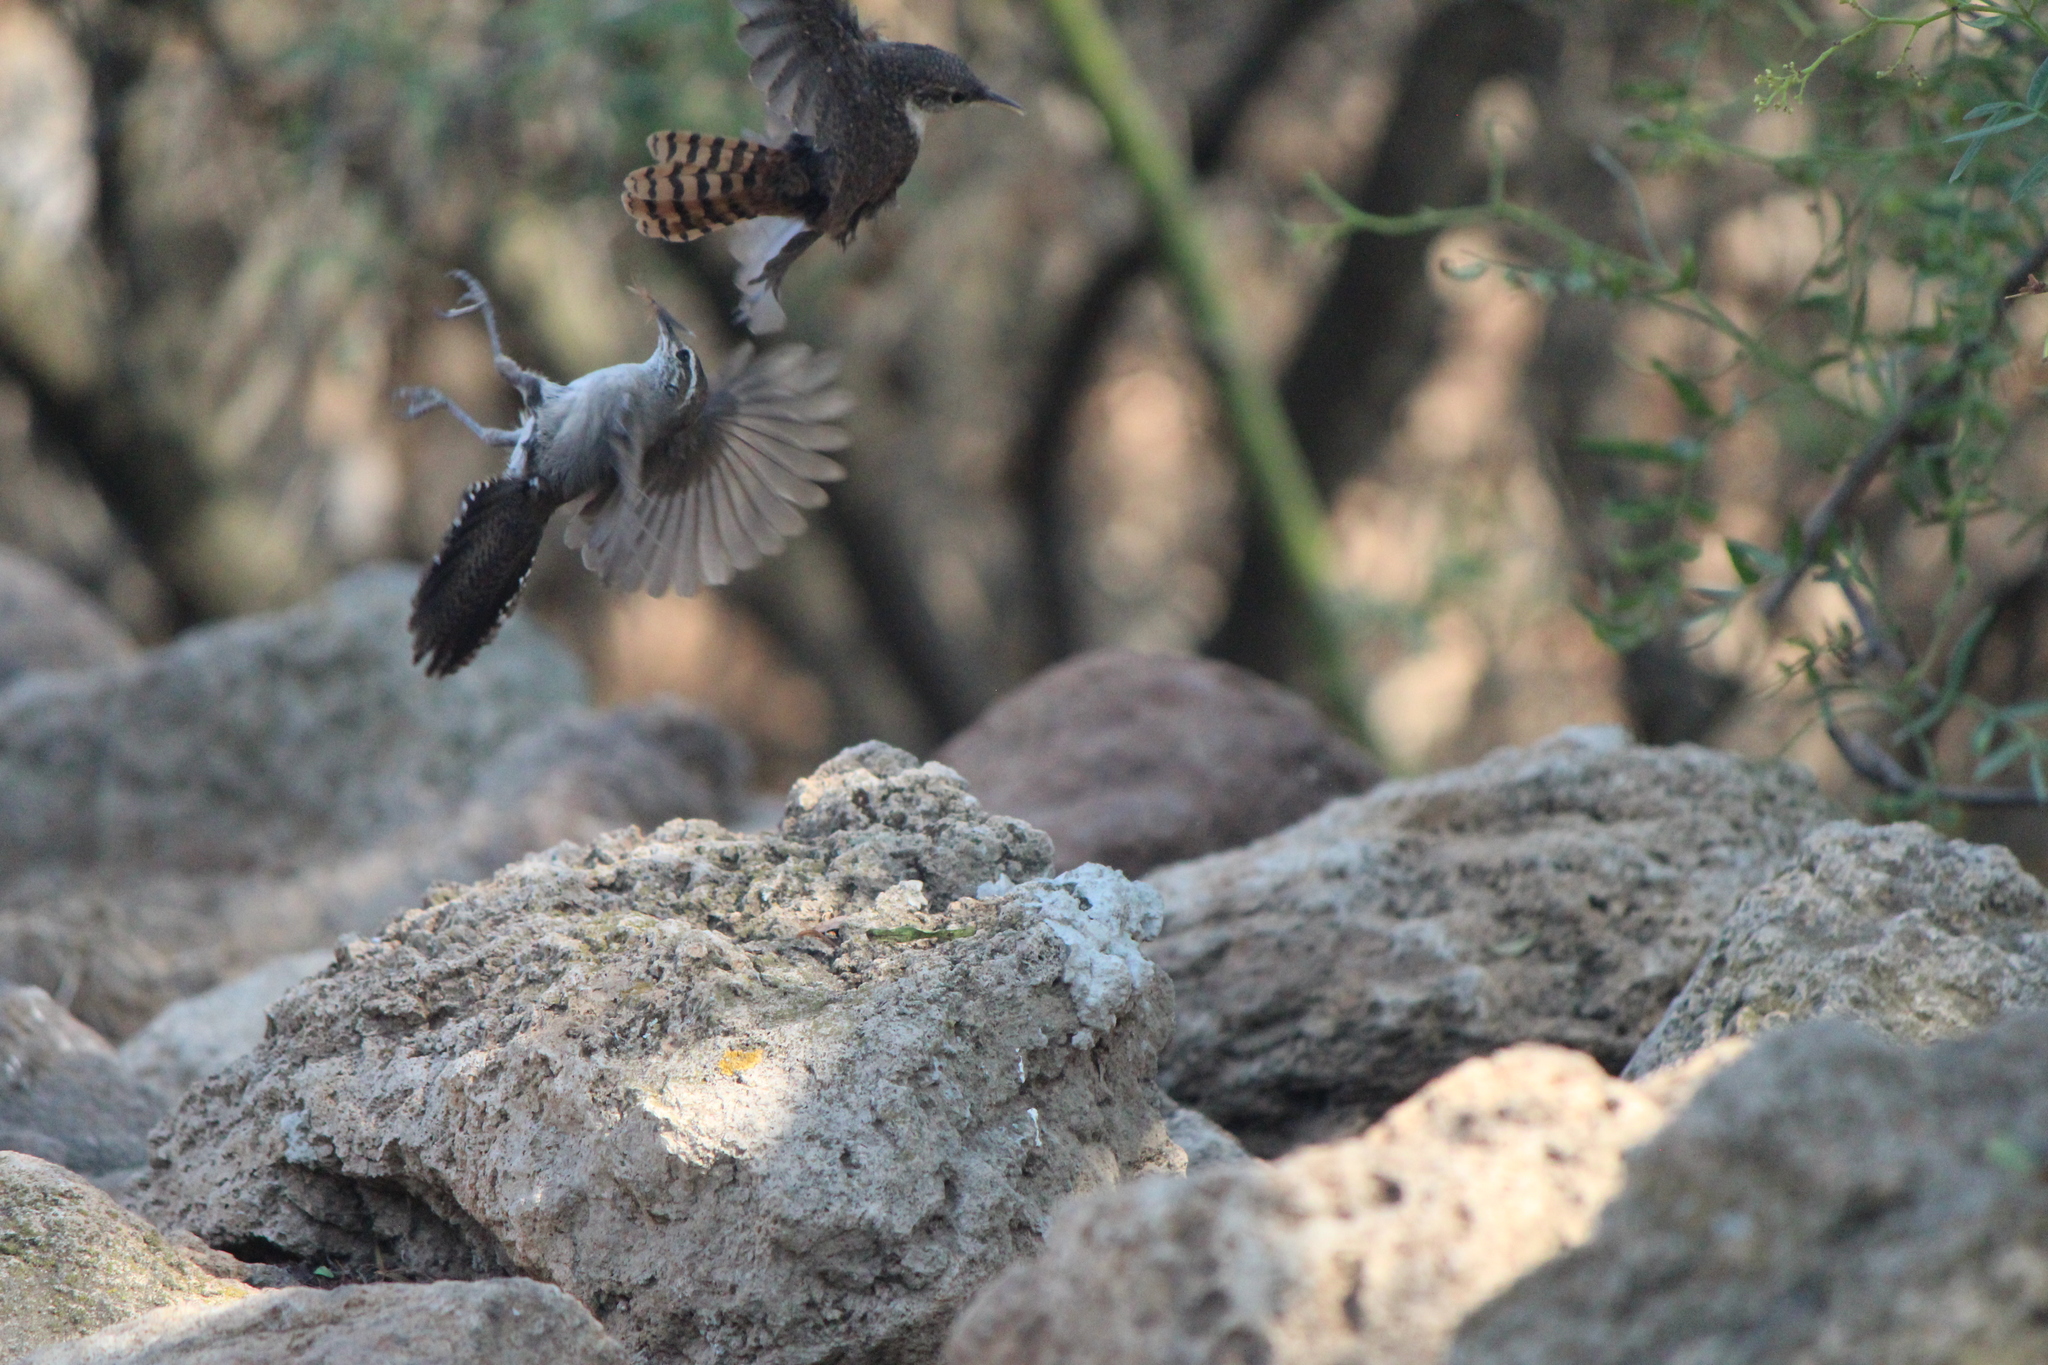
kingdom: Animalia
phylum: Chordata
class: Aves
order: Passeriformes
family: Troglodytidae
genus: Catherpes
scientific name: Catherpes mexicanus
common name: Canyon wren
